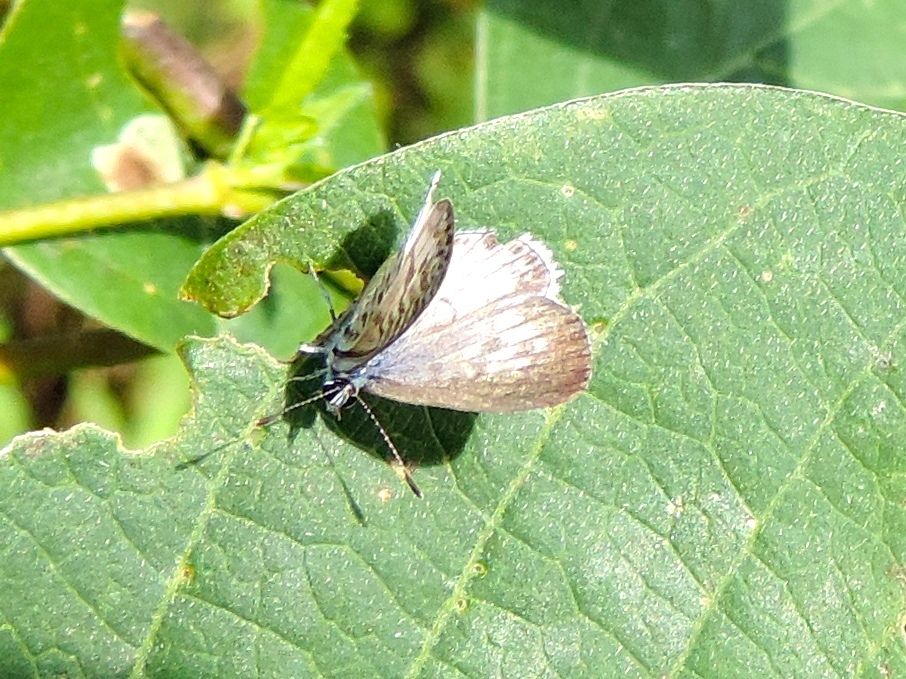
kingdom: Animalia
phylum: Arthropoda
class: Insecta
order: Lepidoptera
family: Lycaenidae
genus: Leptotes
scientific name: Leptotes cassius
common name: Cassius blue
